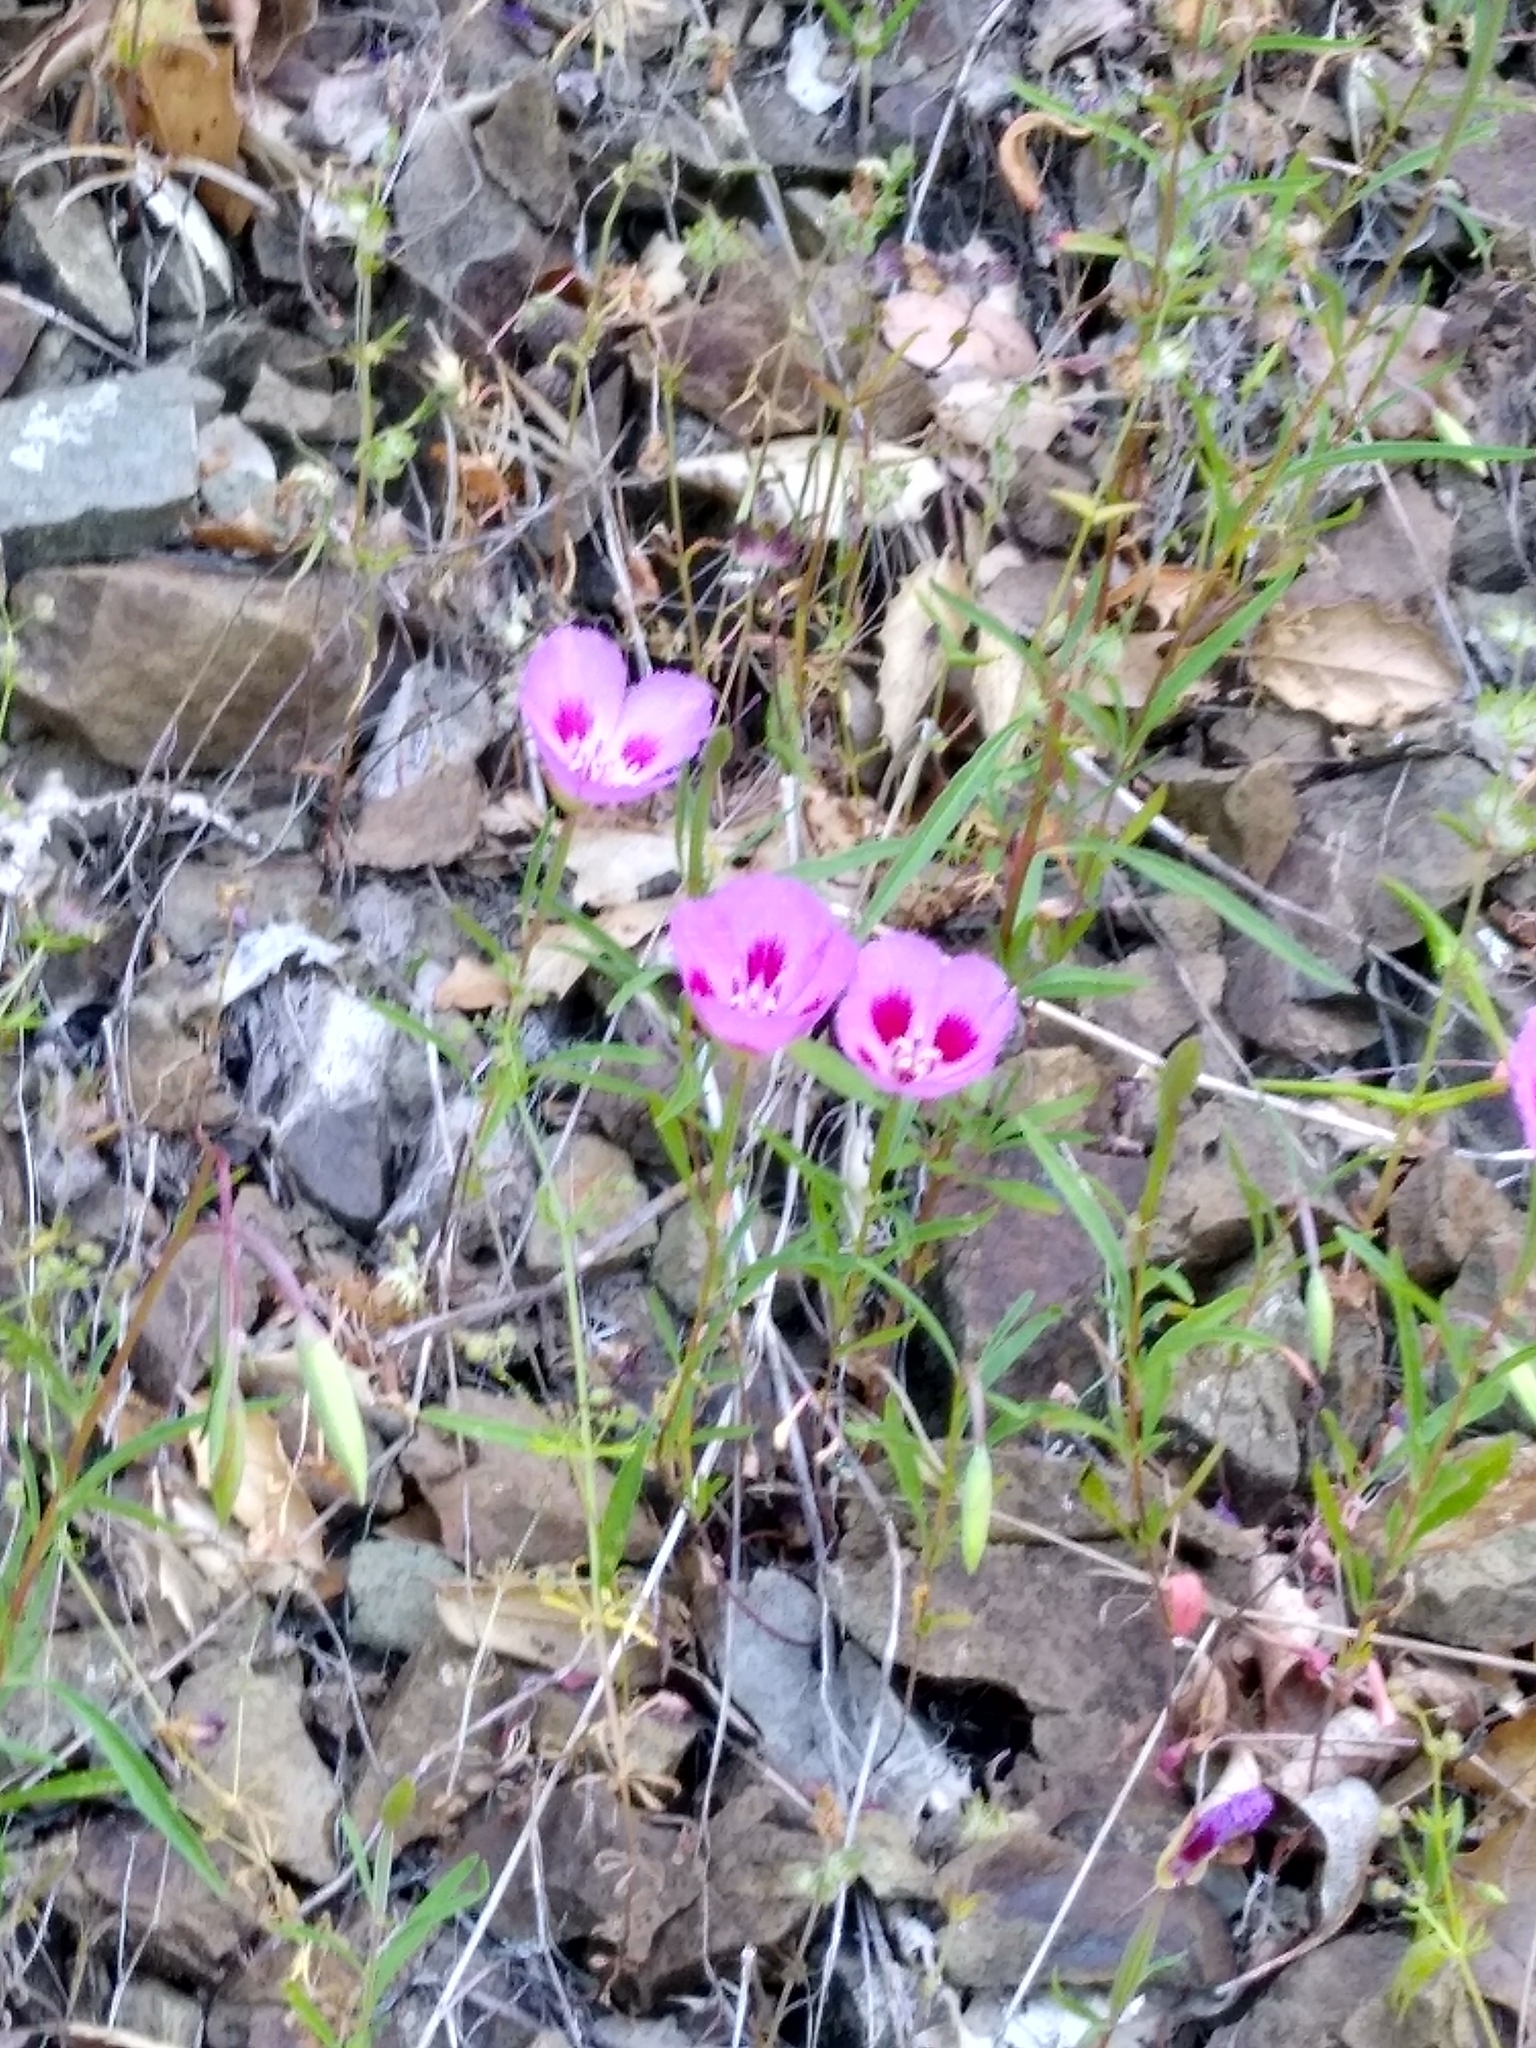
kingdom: Plantae
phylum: Tracheophyta
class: Magnoliopsida
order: Myrtales
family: Onagraceae
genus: Clarkia
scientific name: Clarkia amoena
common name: Godetia
